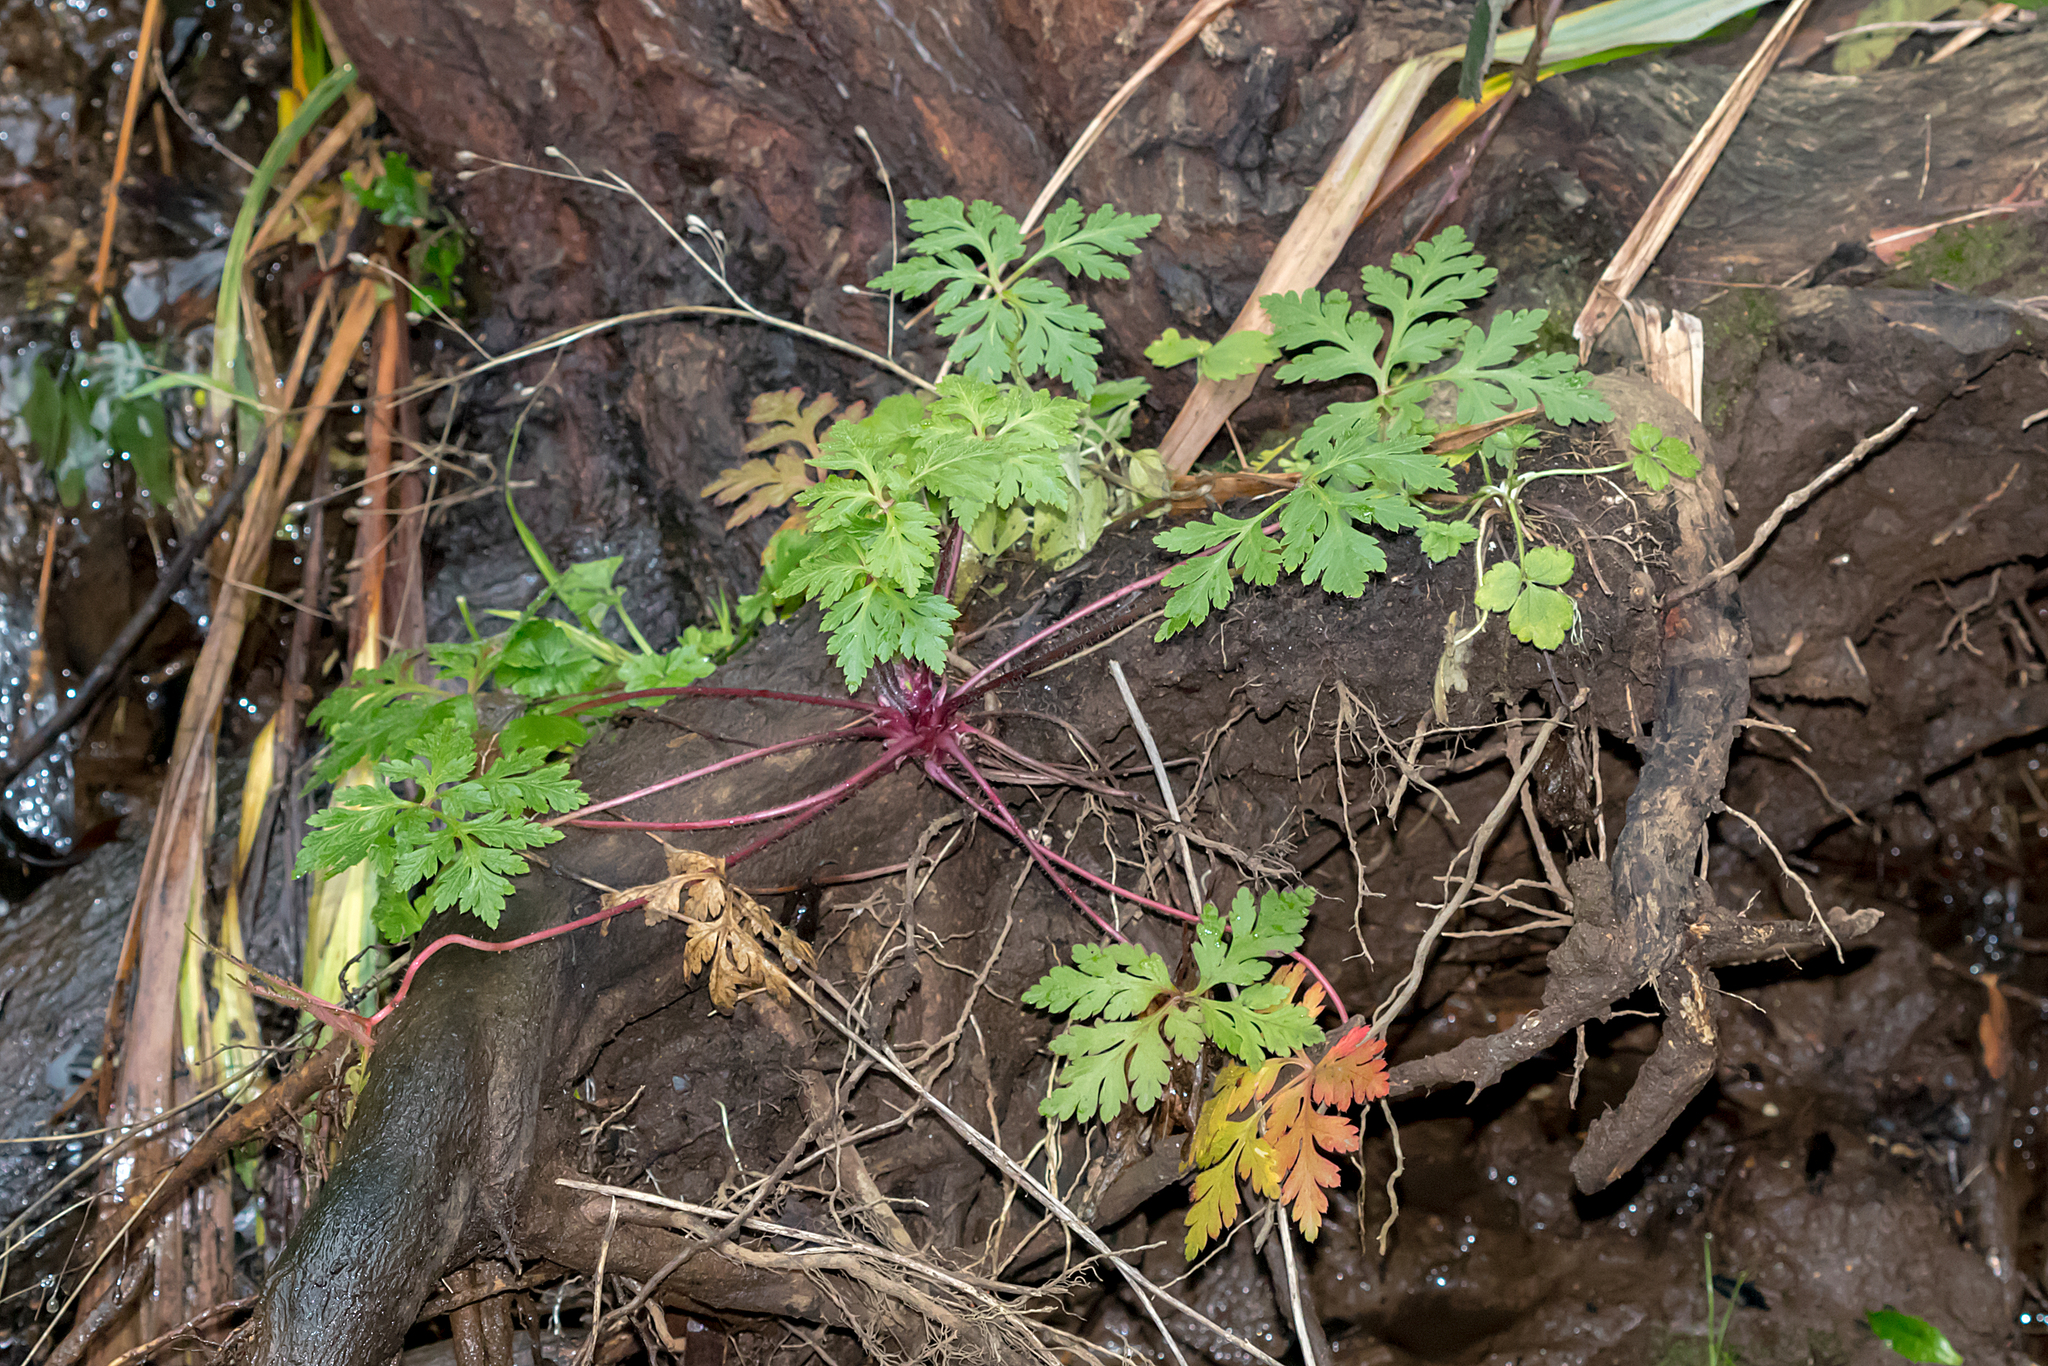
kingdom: Plantae
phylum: Tracheophyta
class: Magnoliopsida
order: Geraniales
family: Geraniaceae
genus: Geranium
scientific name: Geranium robertianum
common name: Herb-robert
